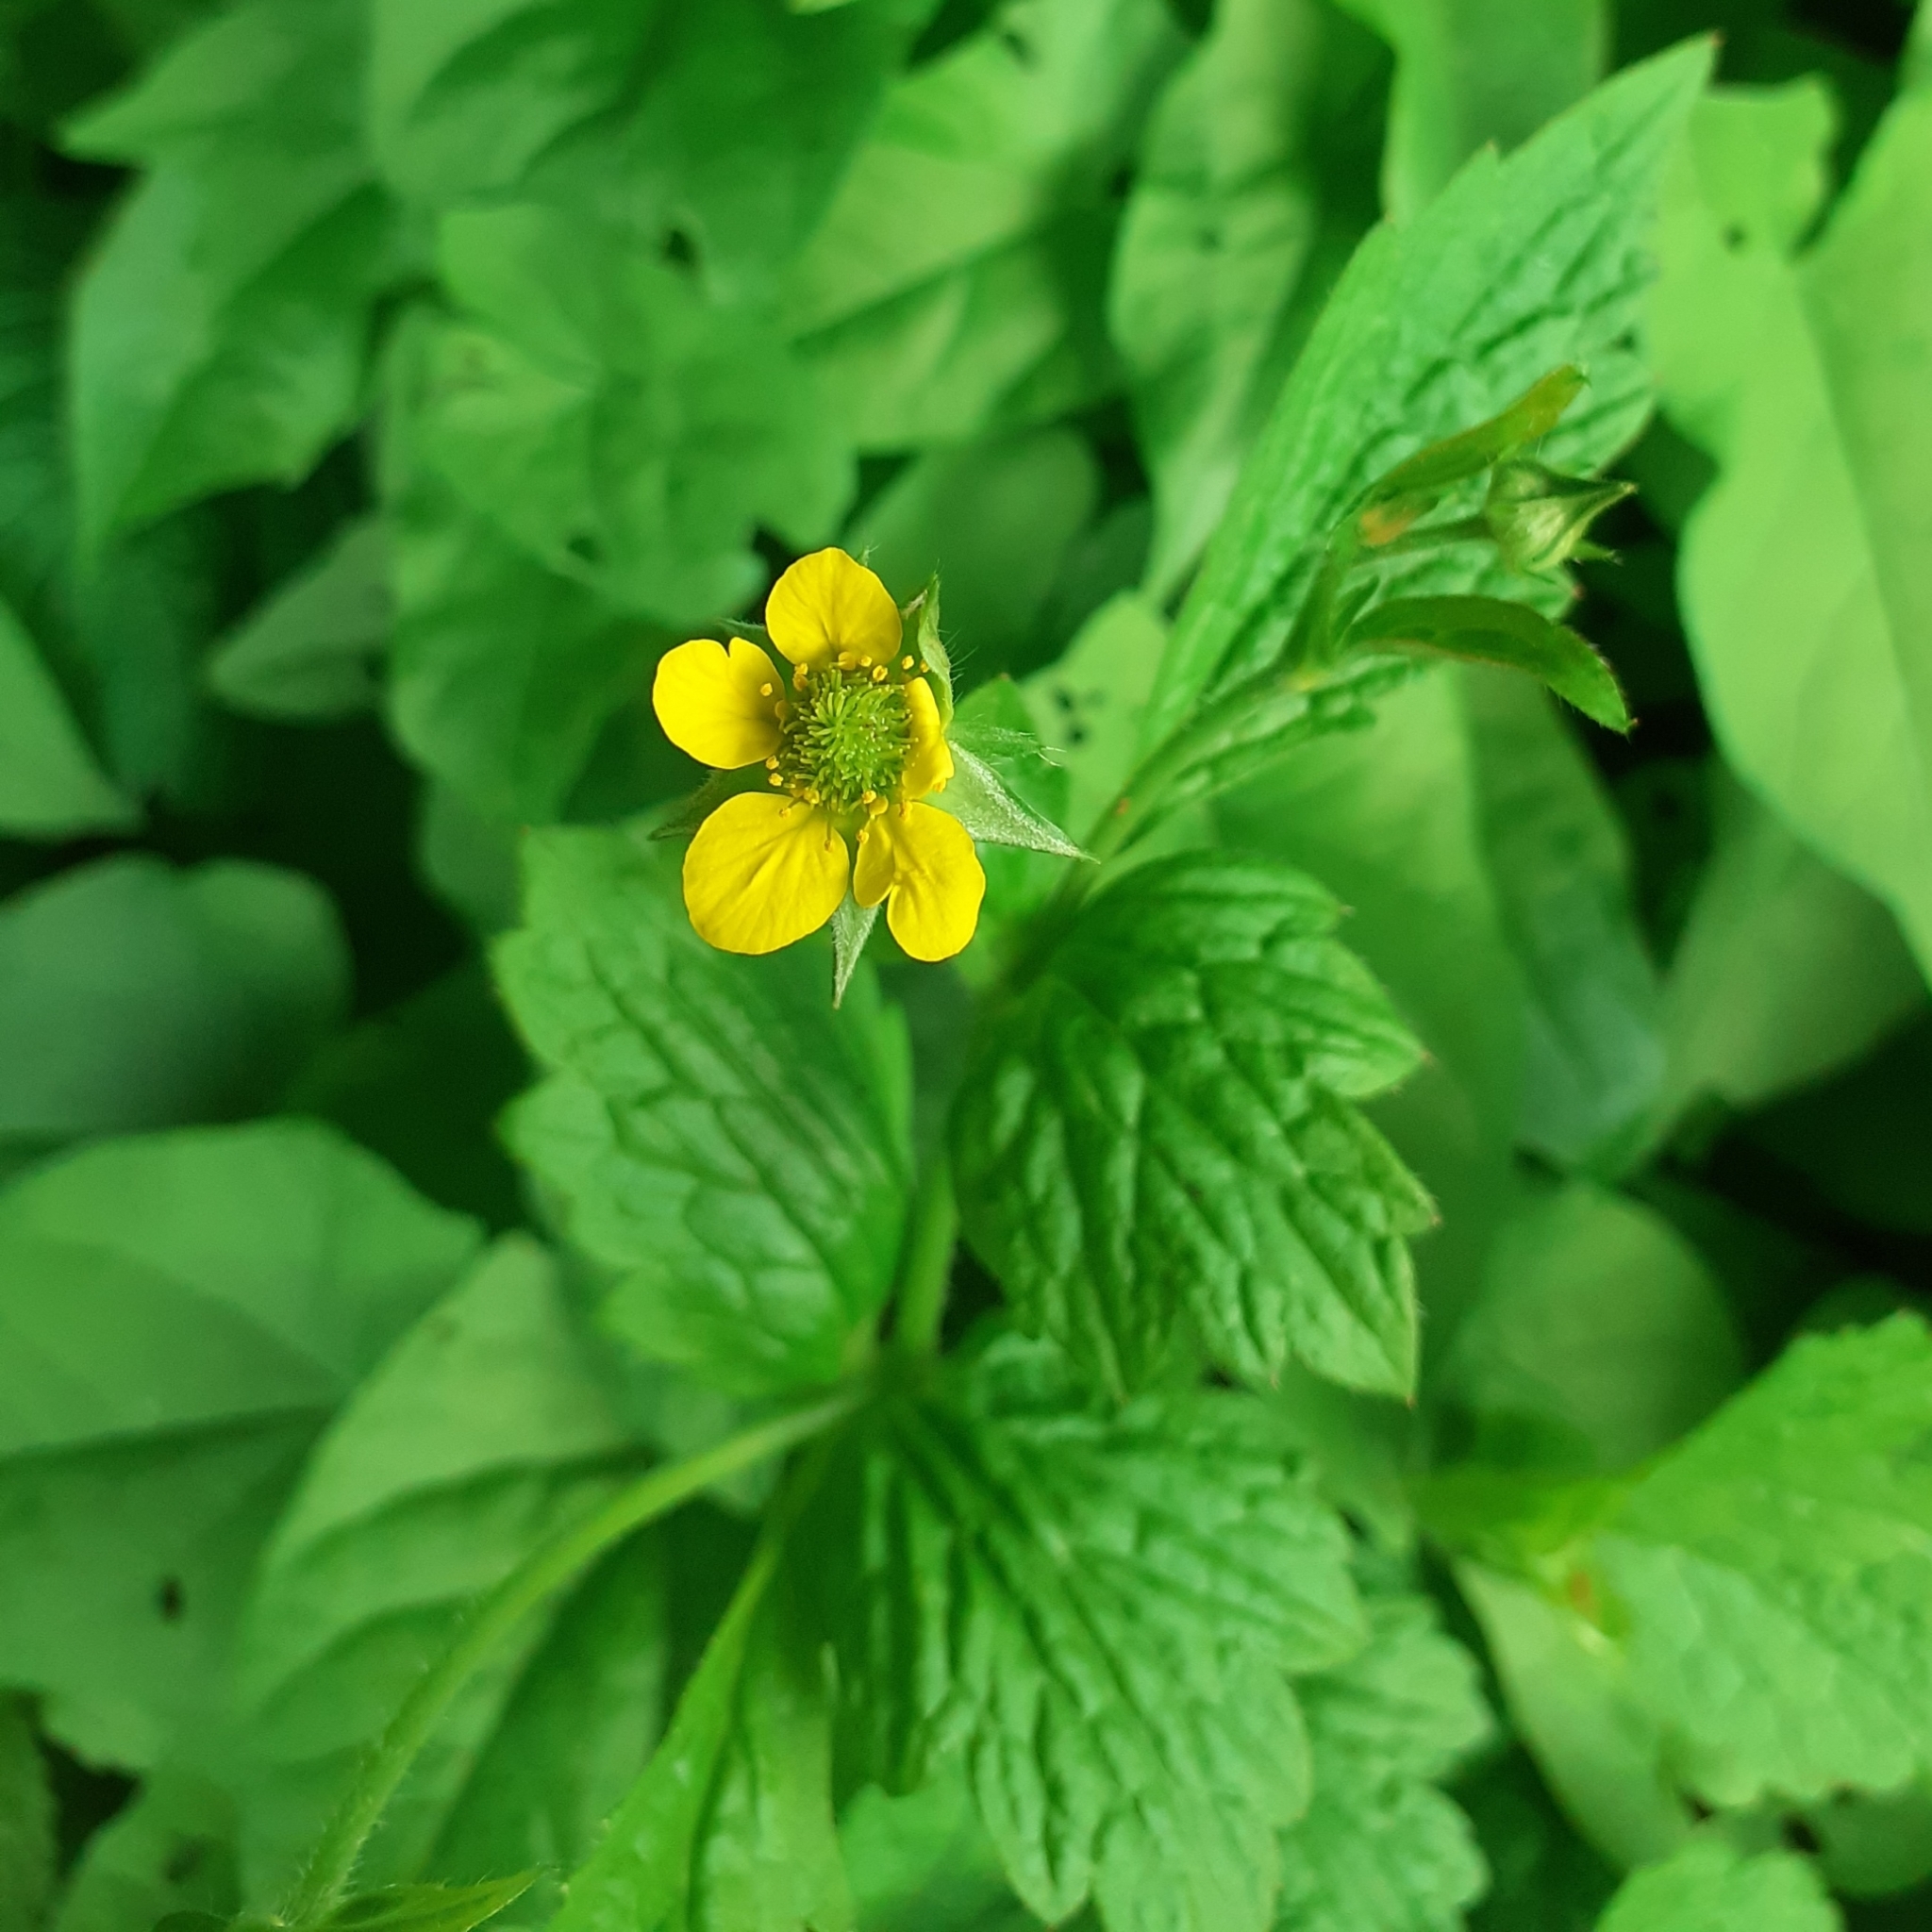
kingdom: Plantae
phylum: Tracheophyta
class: Magnoliopsida
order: Rosales
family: Rosaceae
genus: Geum
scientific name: Geum urbanum
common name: Wood avens
